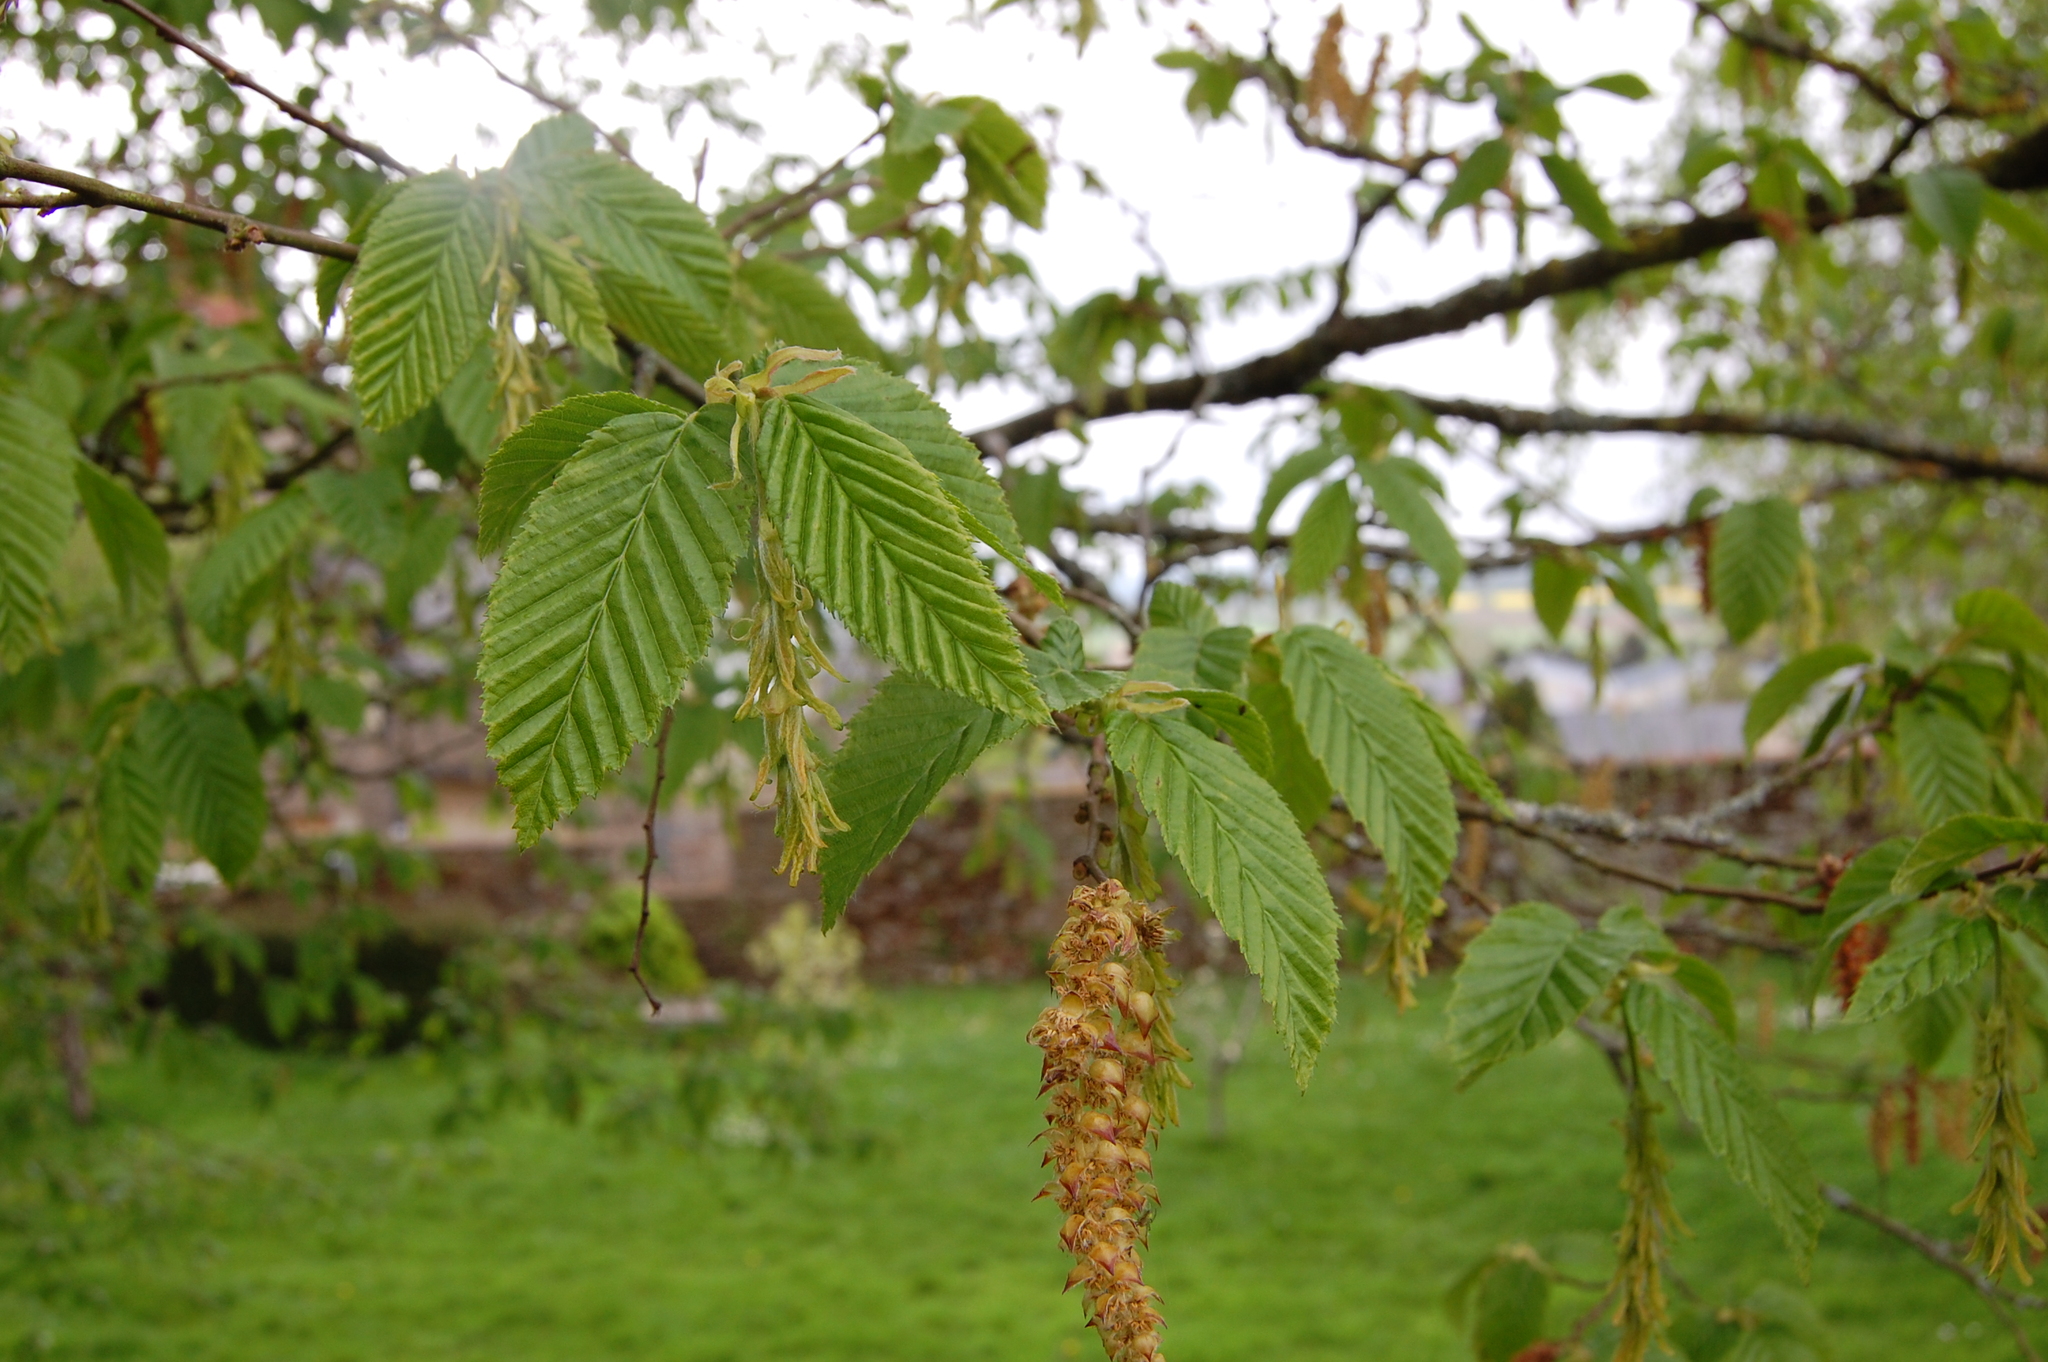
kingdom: Plantae
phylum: Tracheophyta
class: Magnoliopsida
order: Fagales
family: Betulaceae
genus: Carpinus
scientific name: Carpinus betulus
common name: Hornbeam
